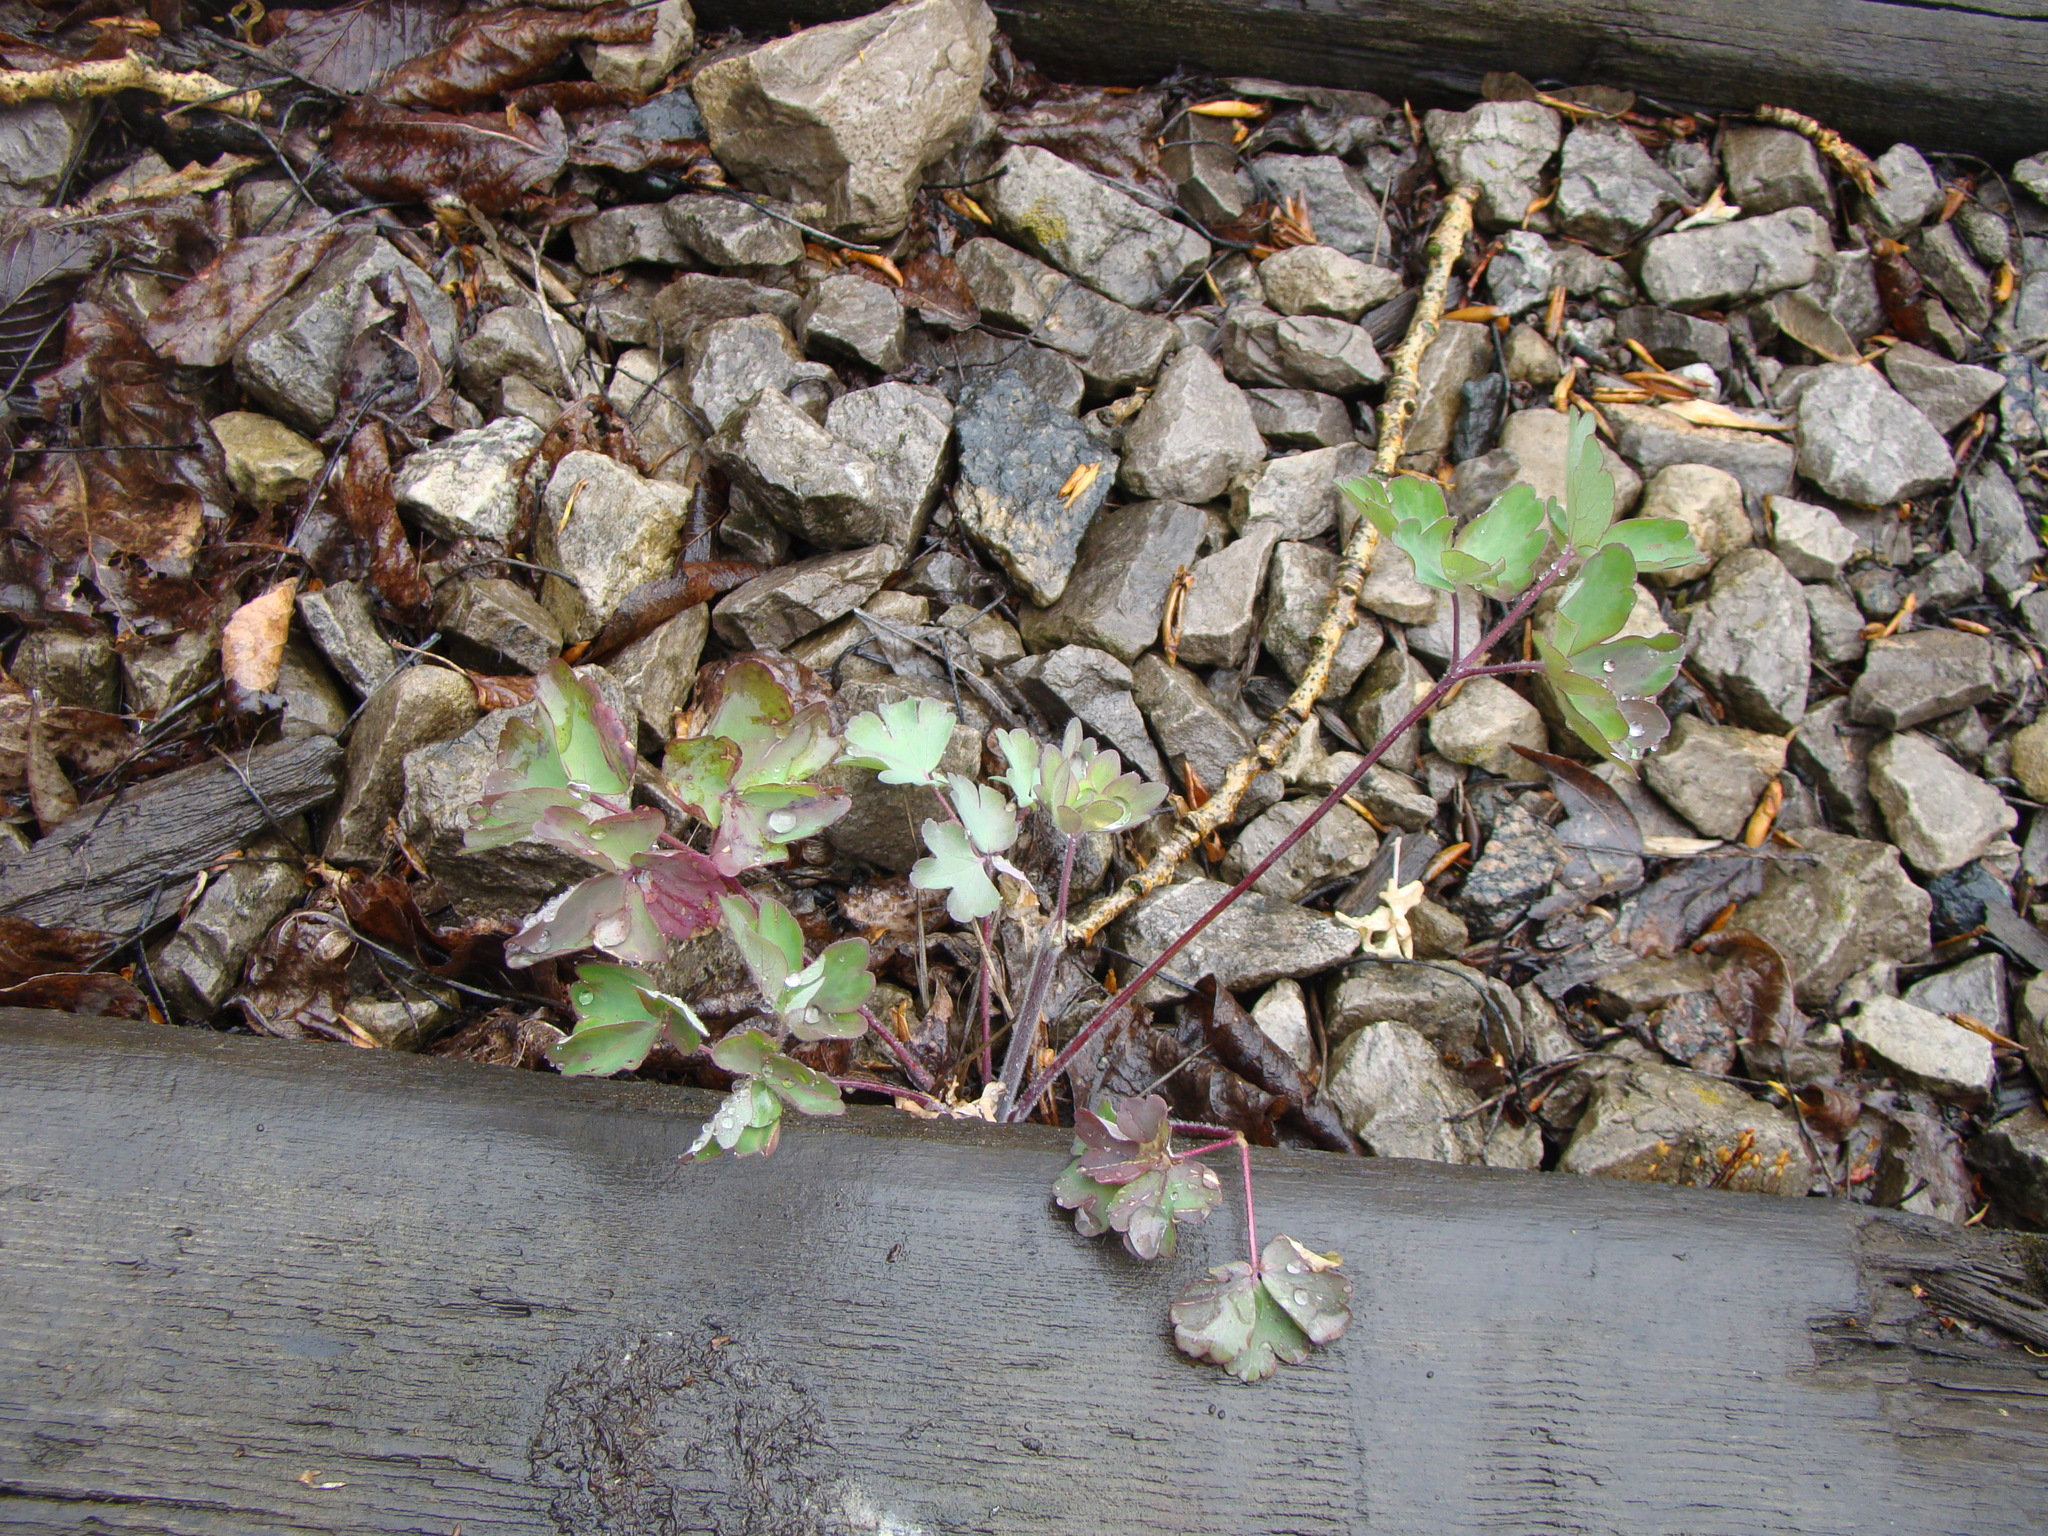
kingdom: Plantae
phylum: Tracheophyta
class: Magnoliopsida
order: Ranunculales
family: Ranunculaceae
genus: Aquilegia
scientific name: Aquilegia vulgaris
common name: Columbine
